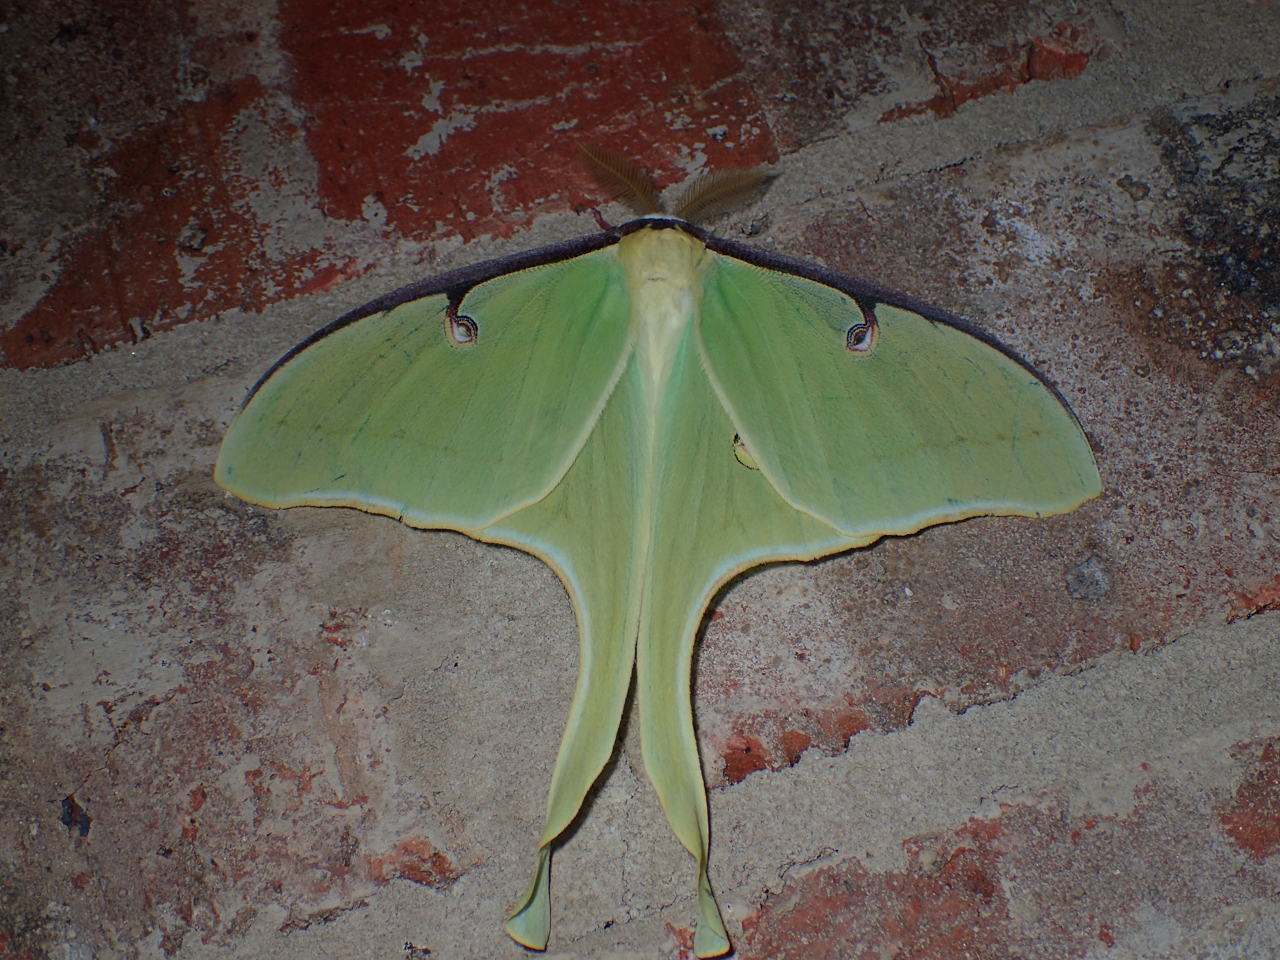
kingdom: Animalia
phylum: Arthropoda
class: Insecta
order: Lepidoptera
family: Saturniidae
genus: Actias
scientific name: Actias luna
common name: Luna moth
